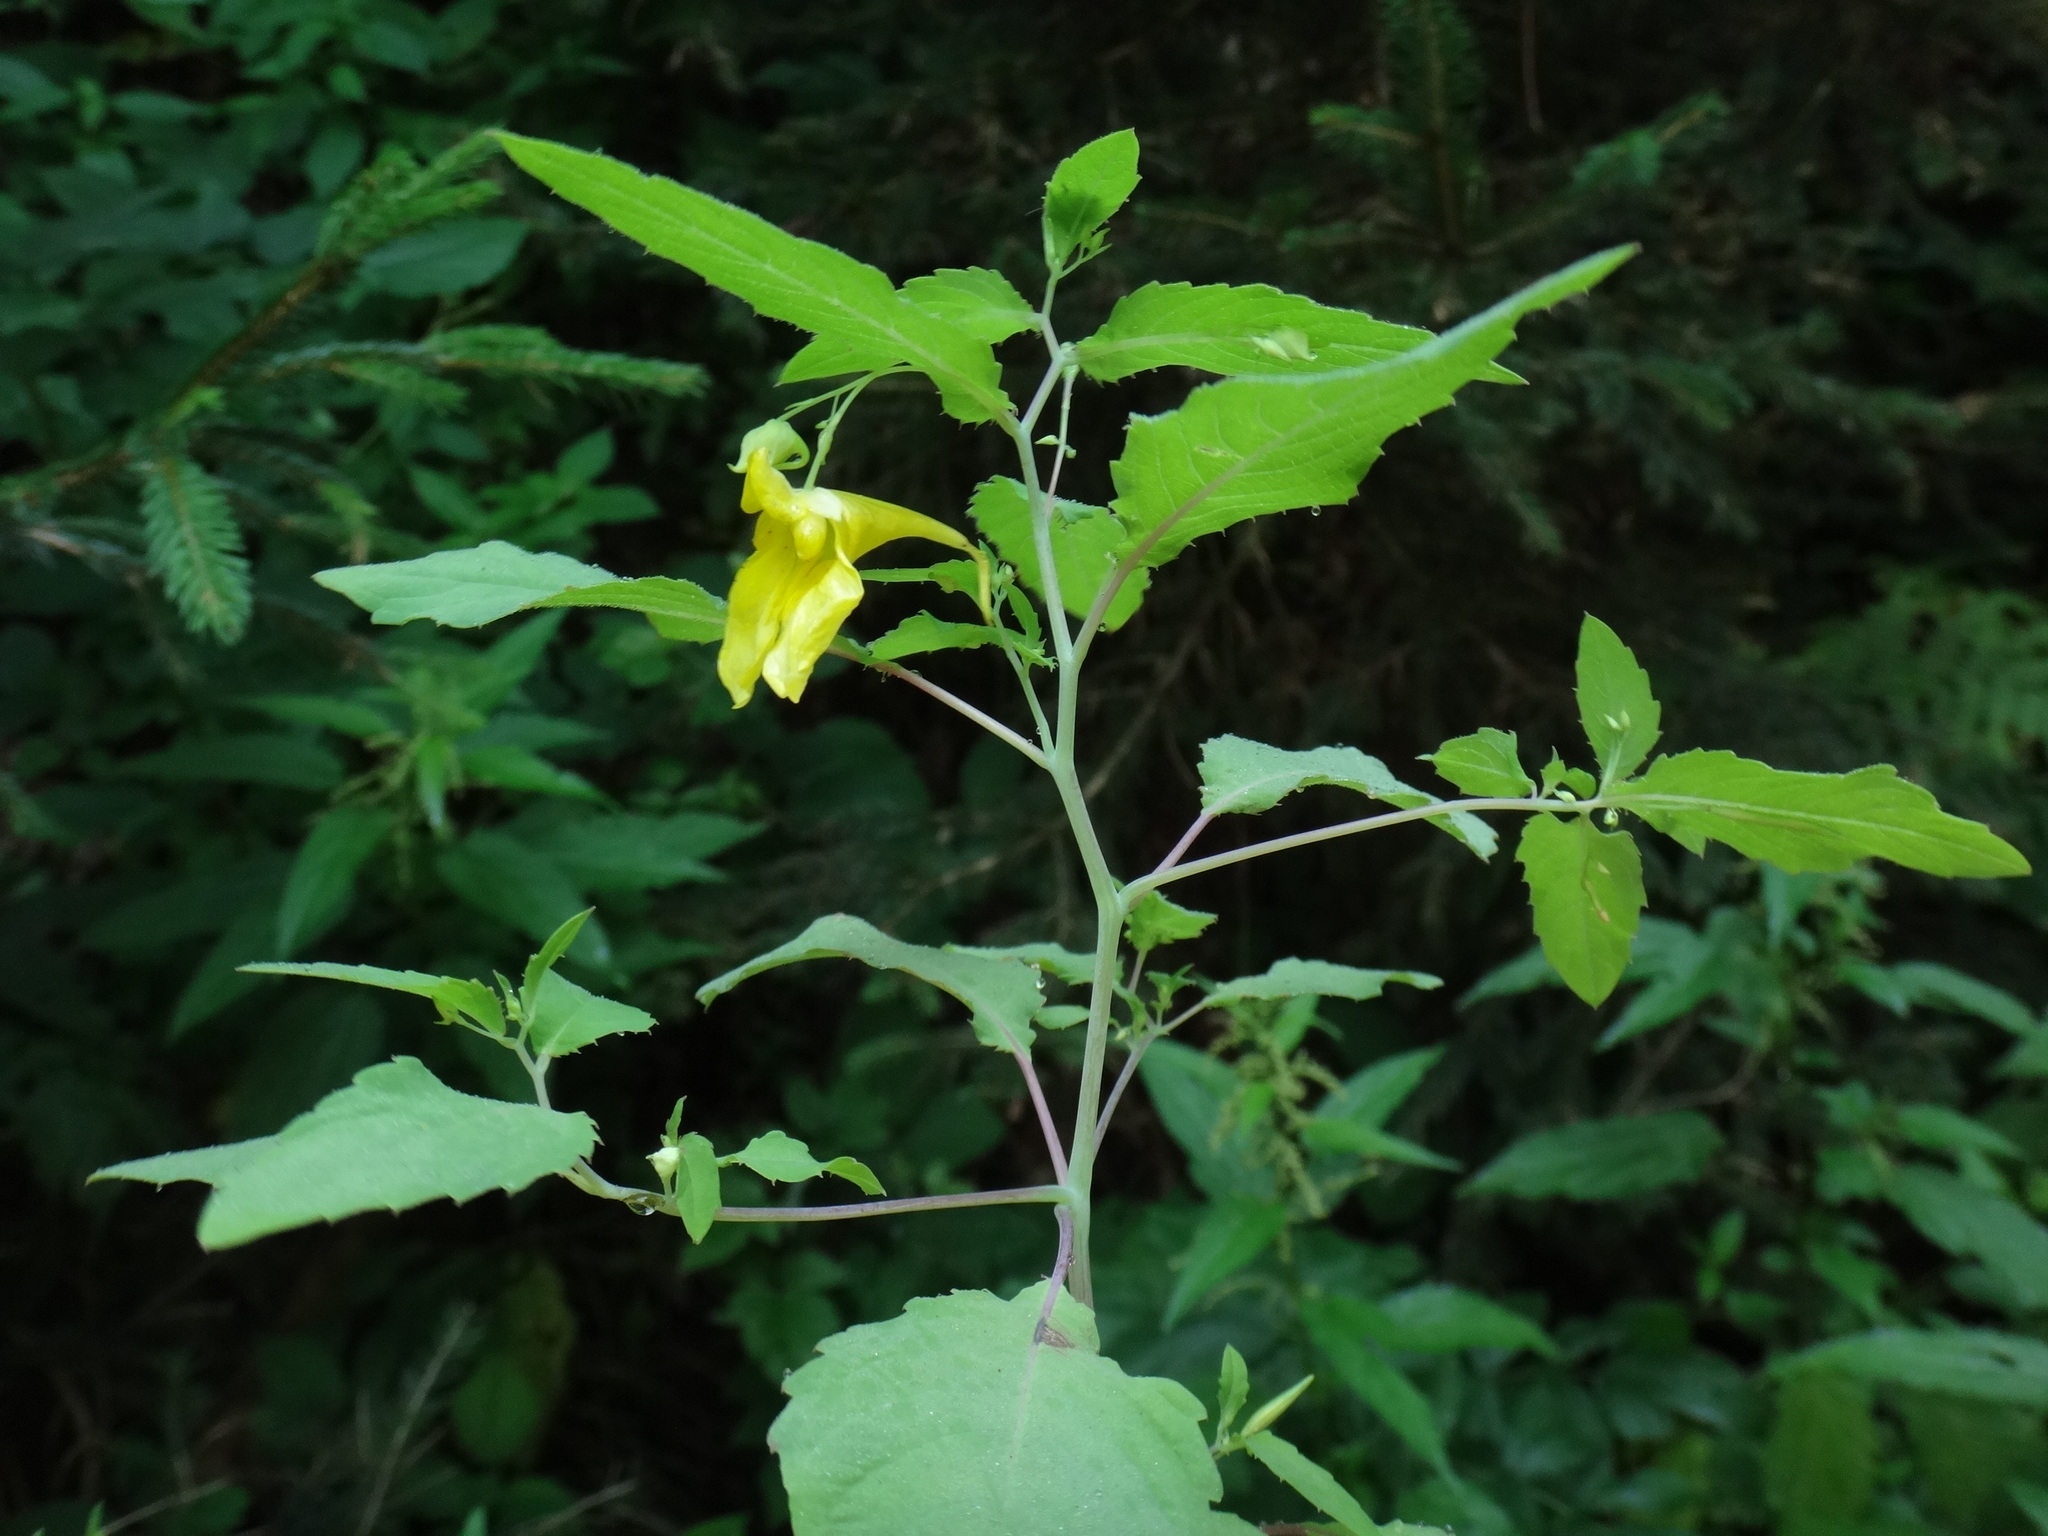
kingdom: Plantae
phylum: Tracheophyta
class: Magnoliopsida
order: Ericales
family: Balsaminaceae
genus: Impatiens
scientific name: Impatiens noli-tangere
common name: Touch-me-not balsam
